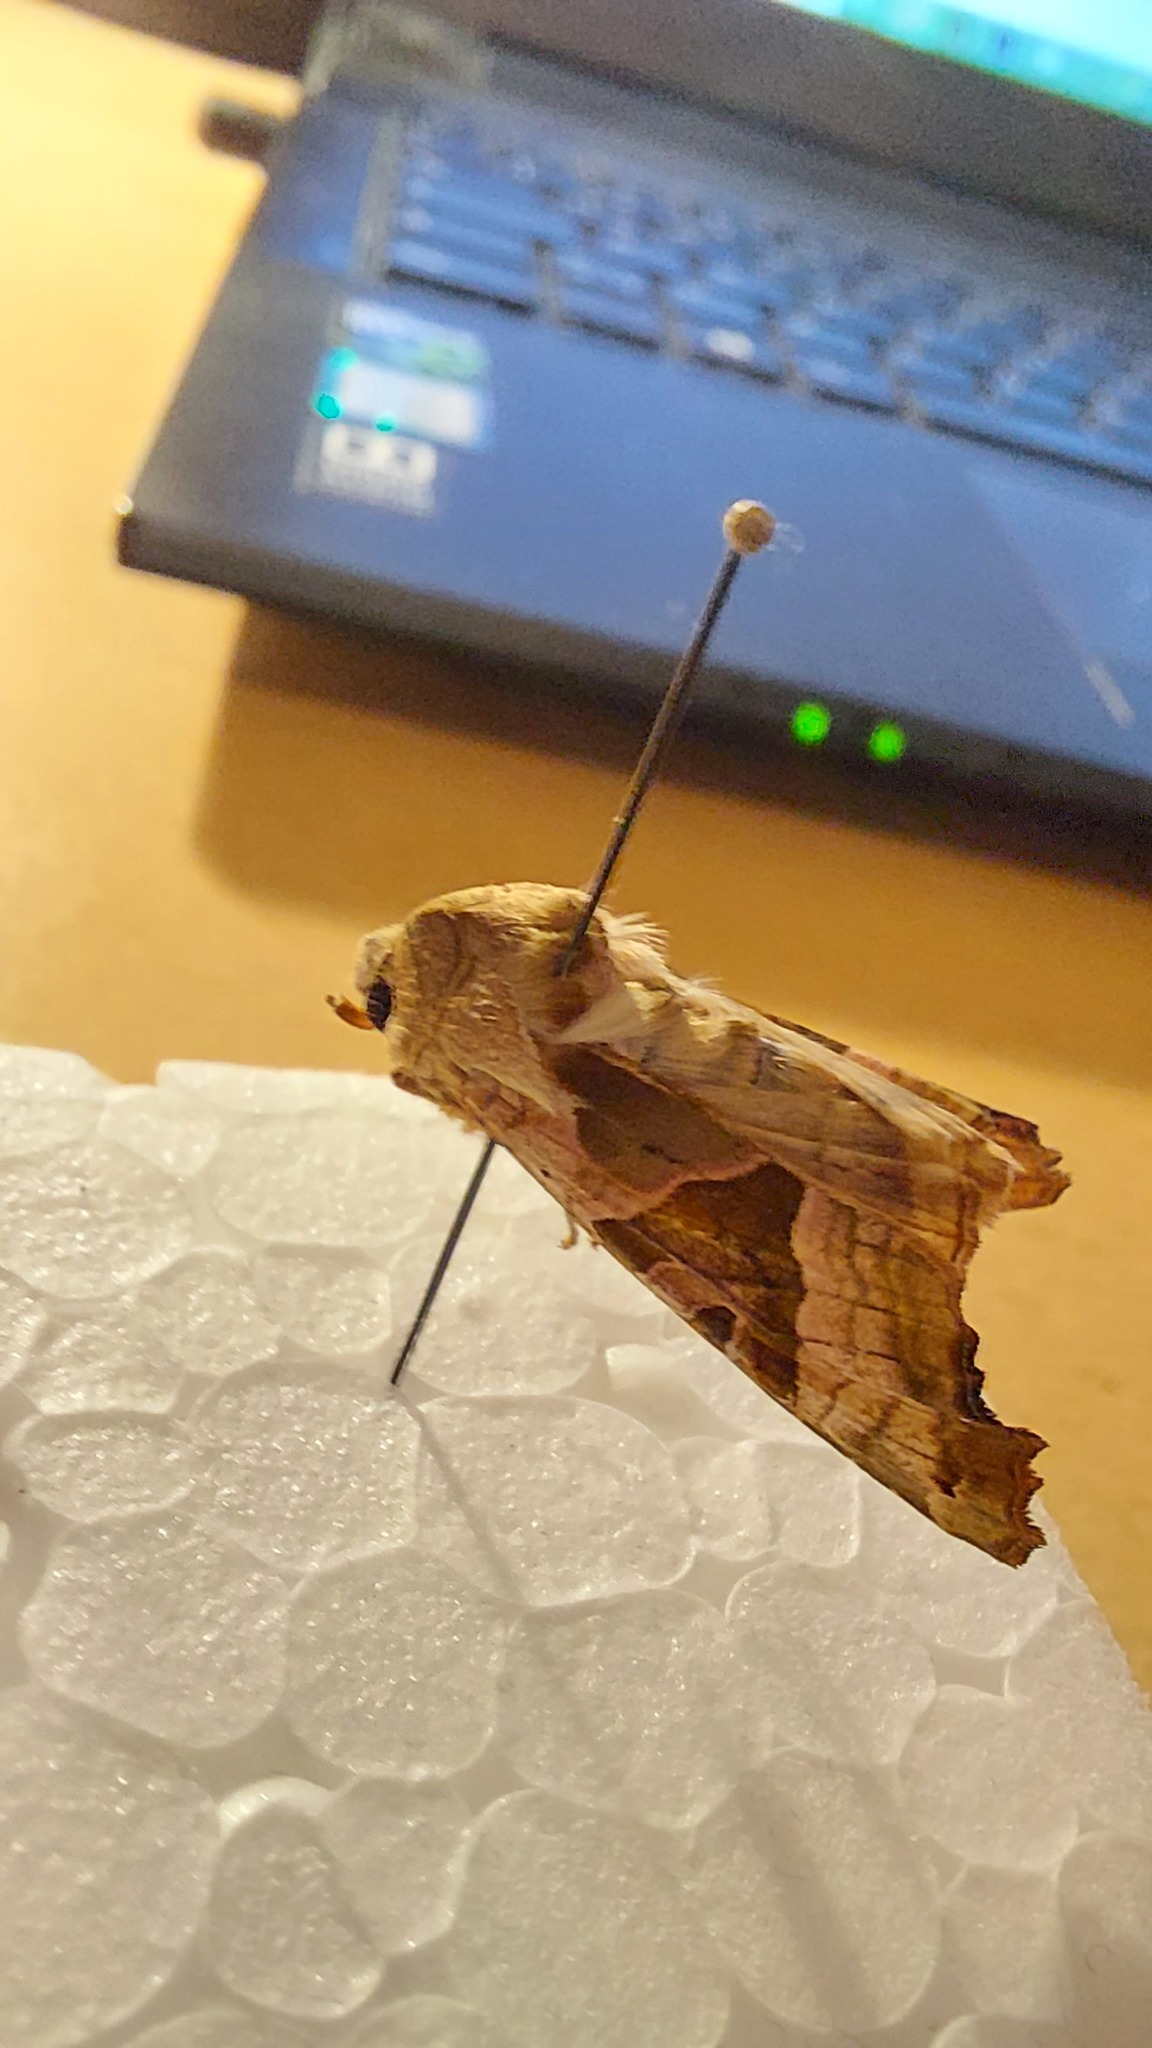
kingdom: Animalia
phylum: Arthropoda
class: Insecta
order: Lepidoptera
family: Noctuidae
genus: Phlogophora
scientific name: Phlogophora meticulosa
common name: Angle shades
